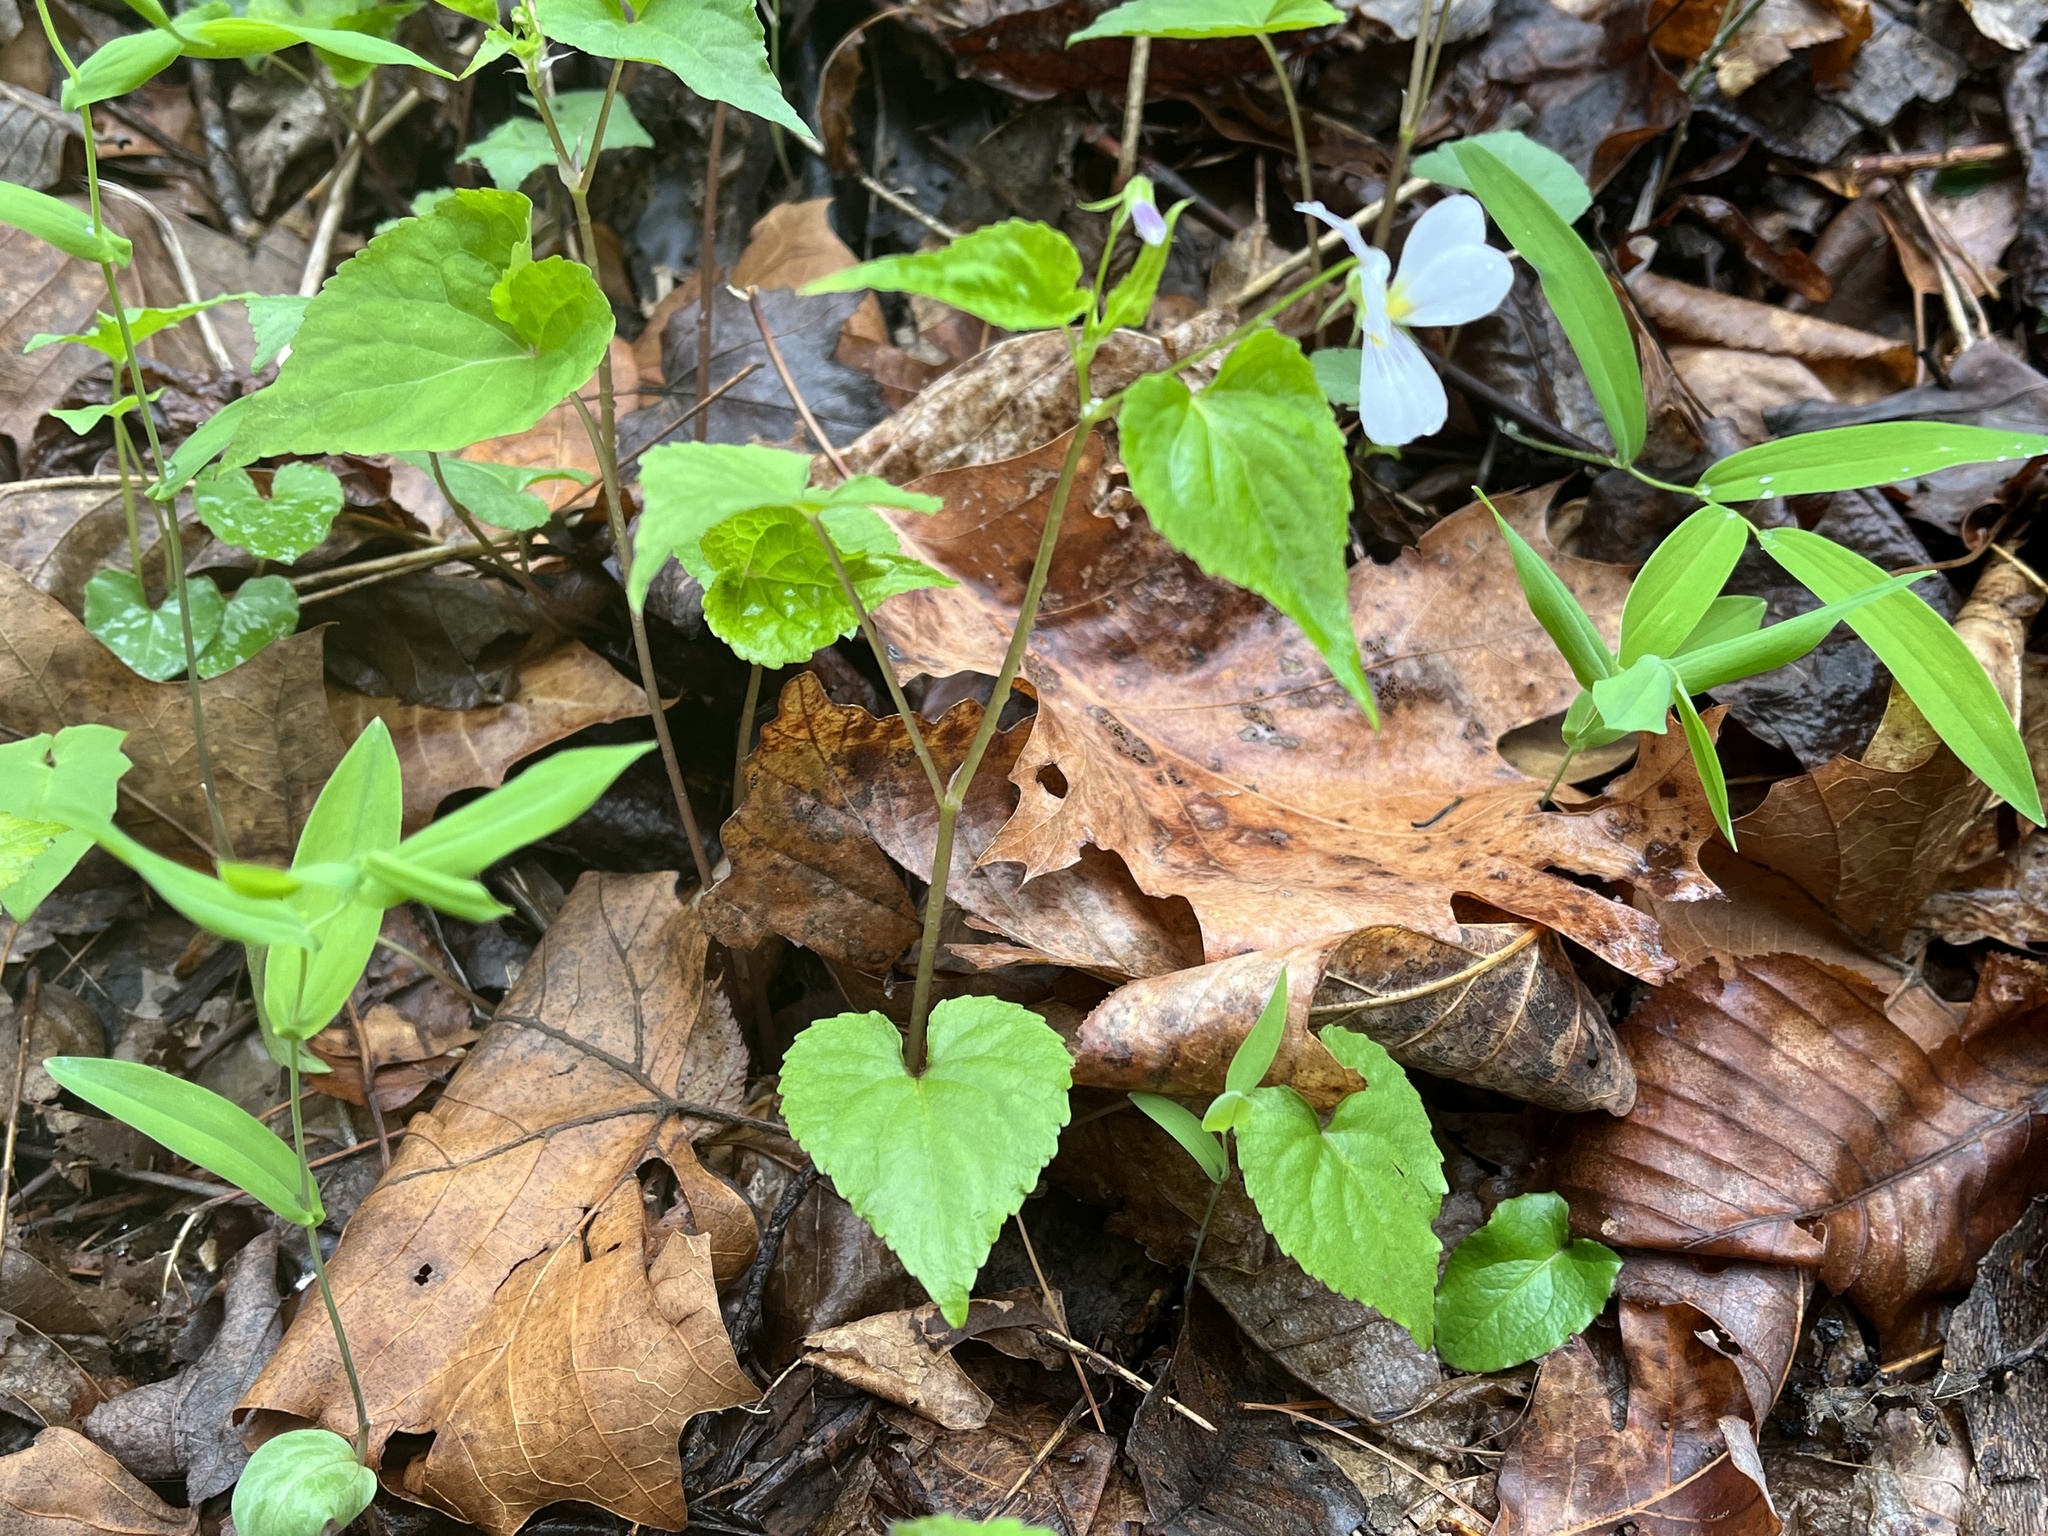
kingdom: Plantae
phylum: Tracheophyta
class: Magnoliopsida
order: Malpighiales
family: Violaceae
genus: Viola
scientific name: Viola canadensis
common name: Canada violet
